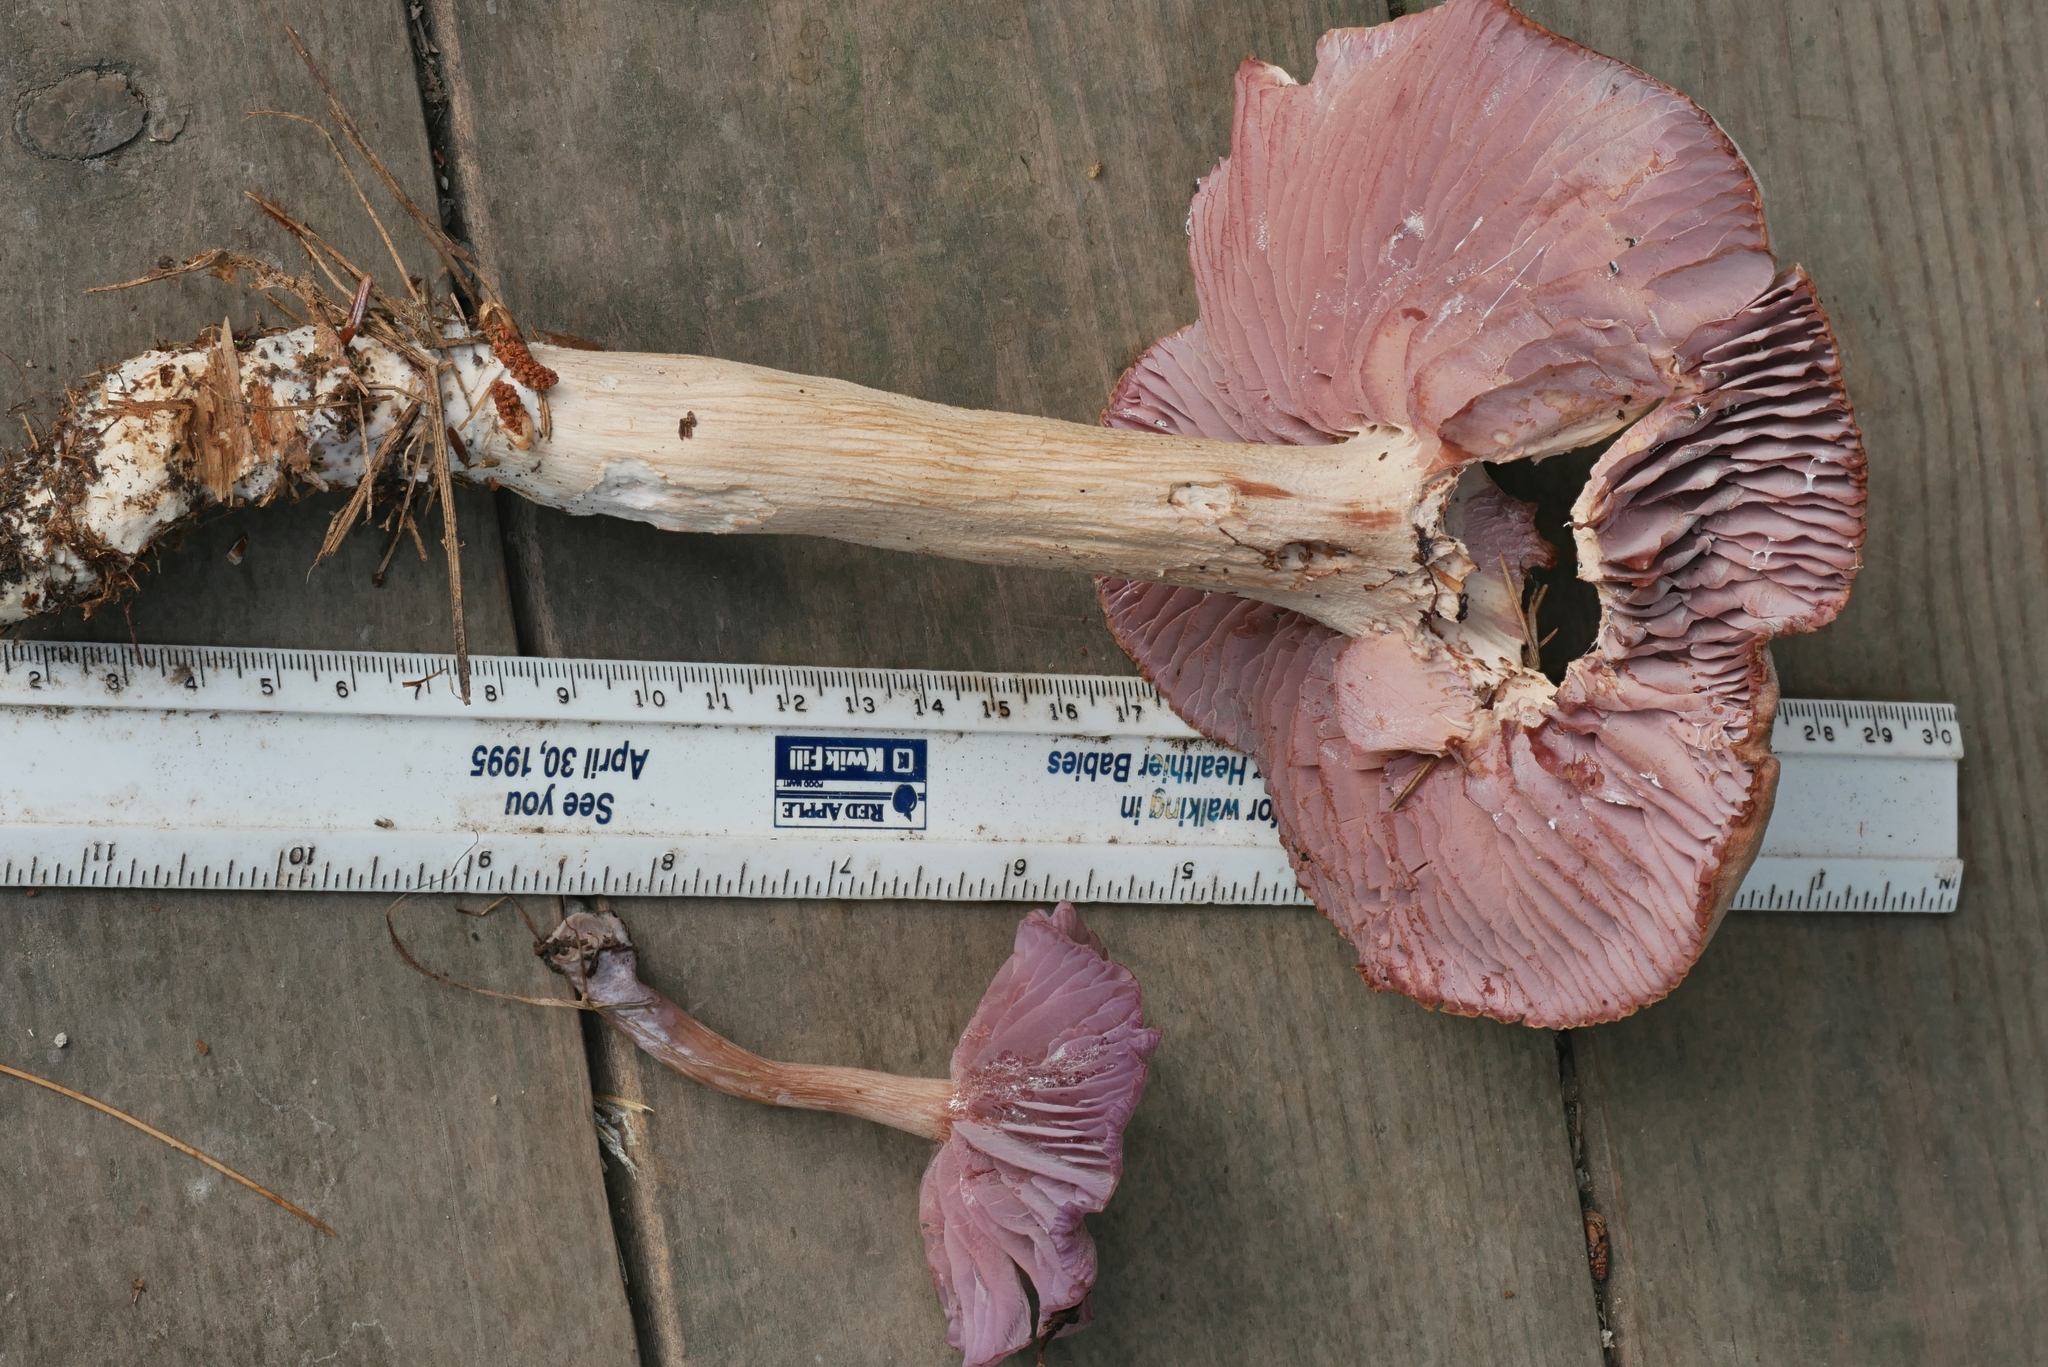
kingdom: Fungi
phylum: Basidiomycota
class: Agaricomycetes
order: Agaricales
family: Hydnangiaceae
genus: Laccaria
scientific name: Laccaria amethystina
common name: Amethyst deceiver
